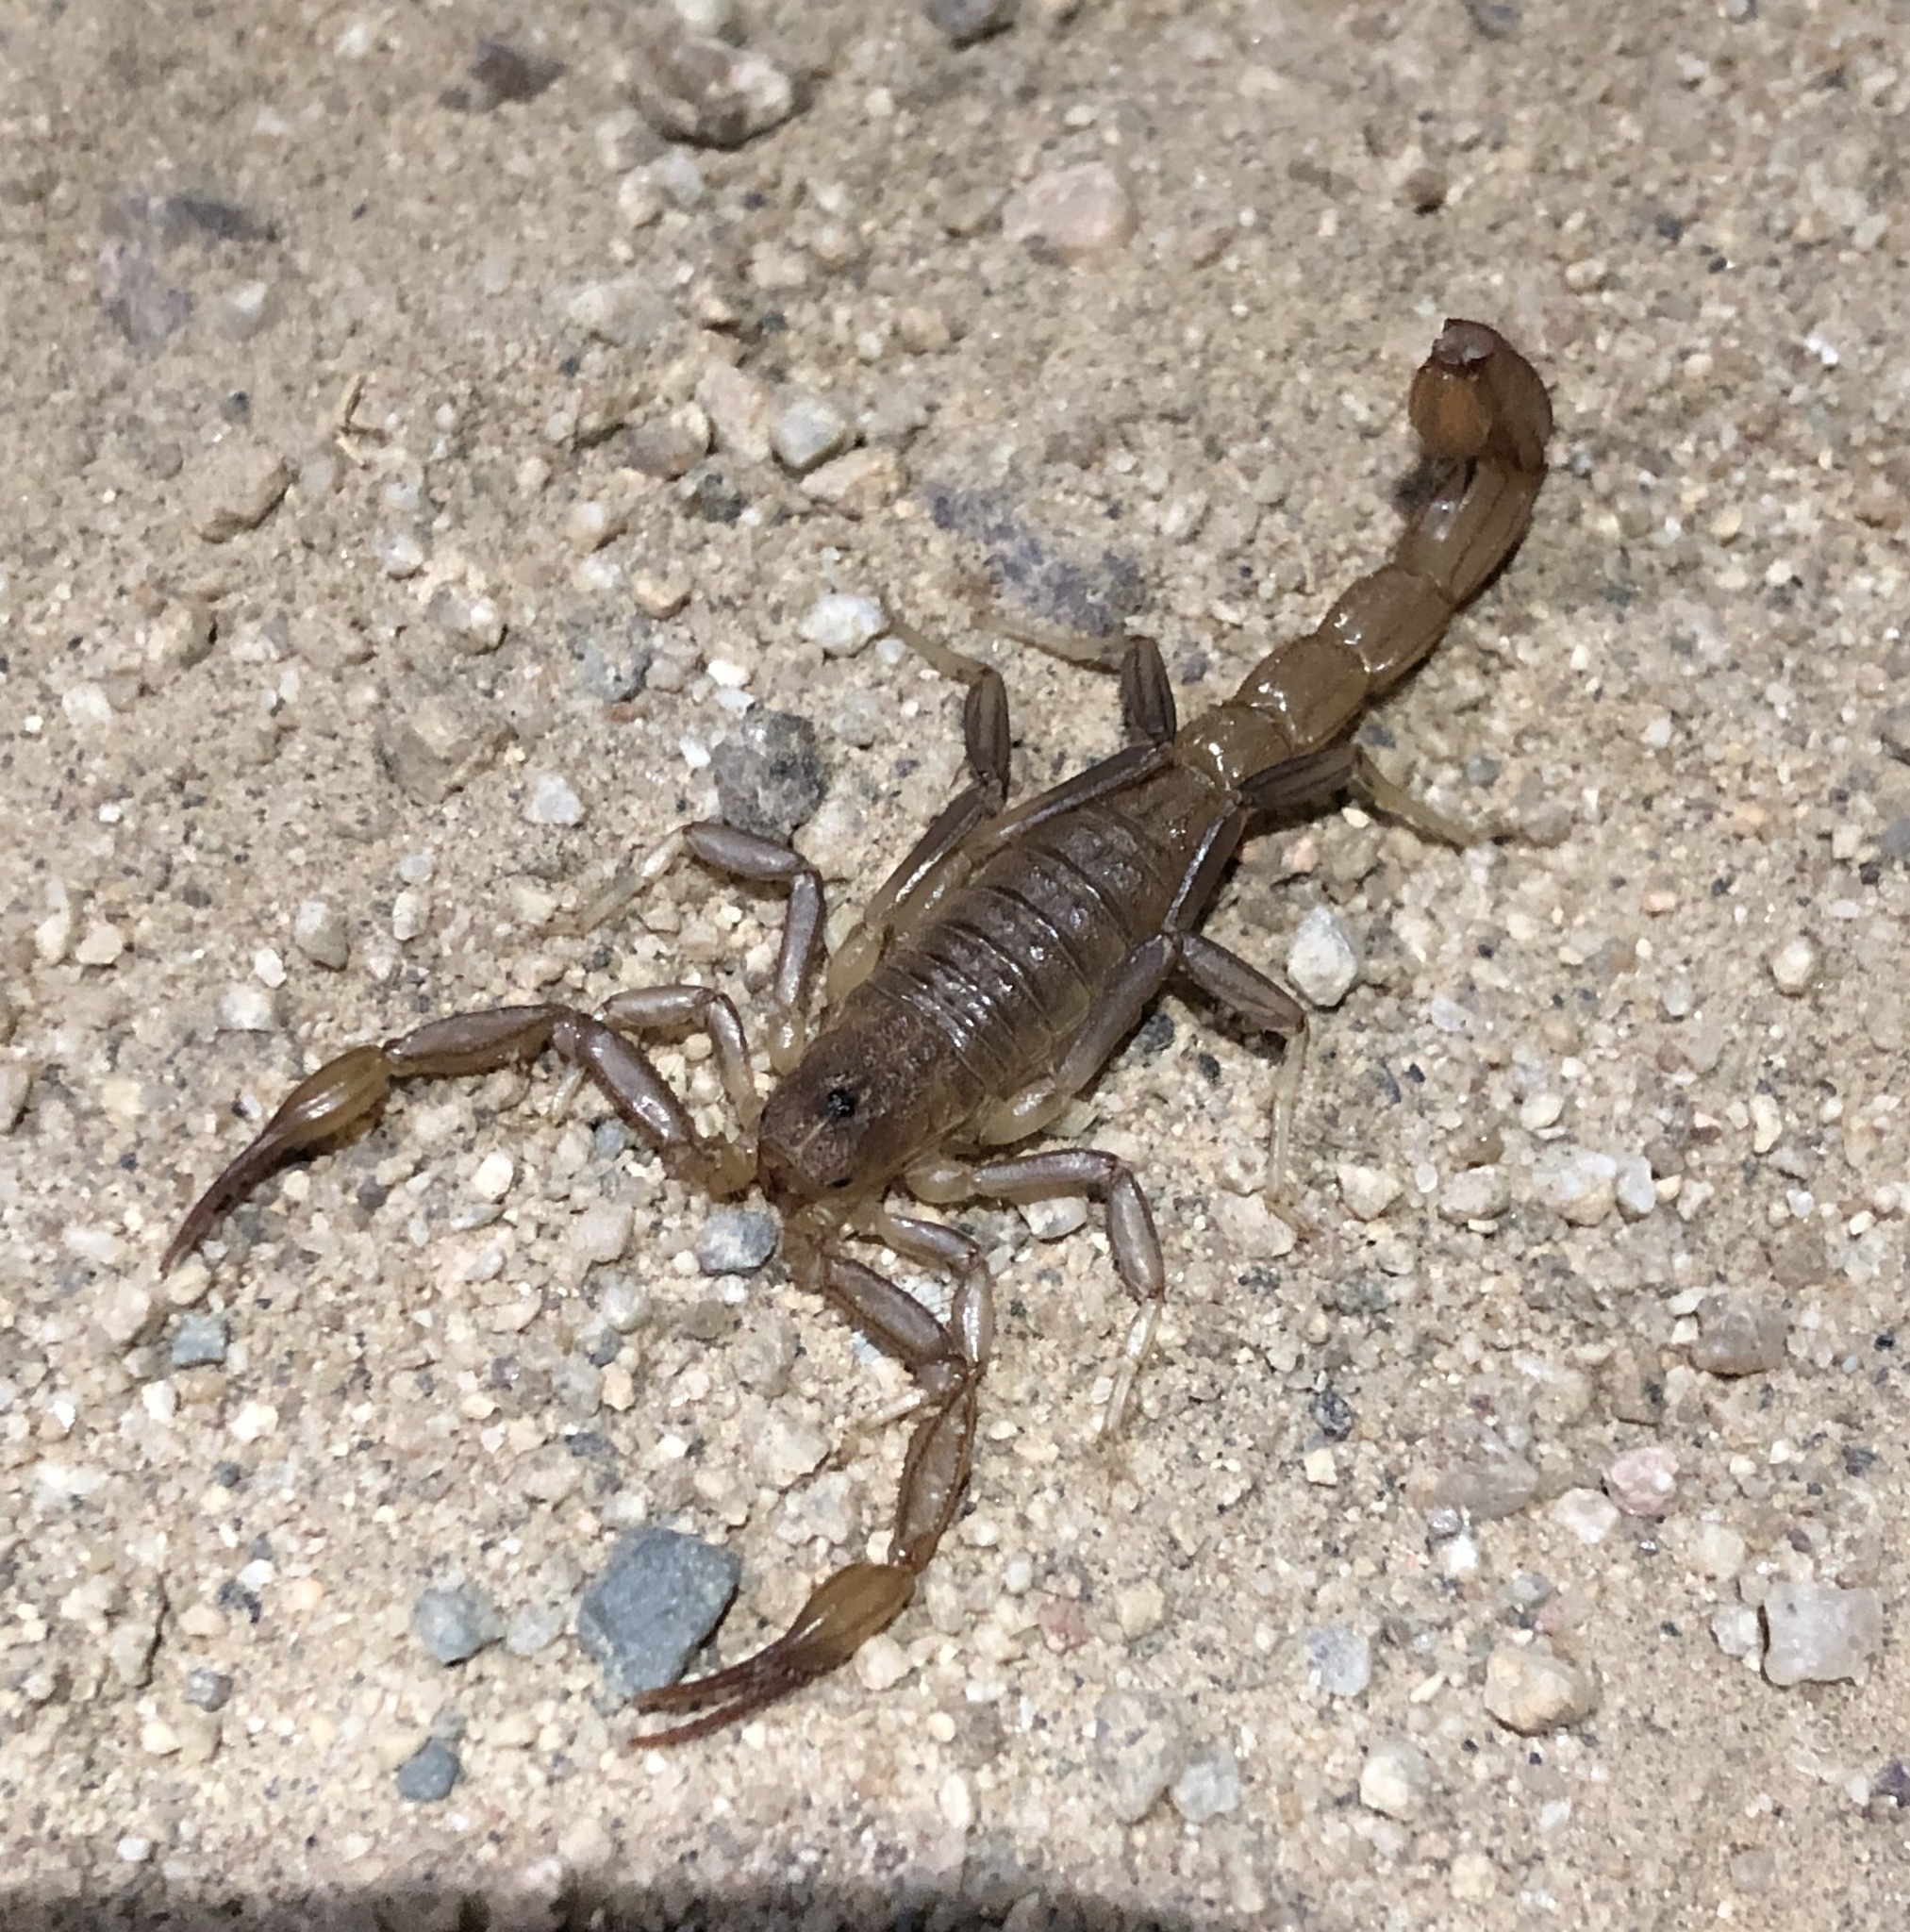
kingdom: Animalia
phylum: Arthropoda
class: Arachnida
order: Scorpiones
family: Vaejovidae
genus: Paravaejovis
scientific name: Paravaejovis puritanus
